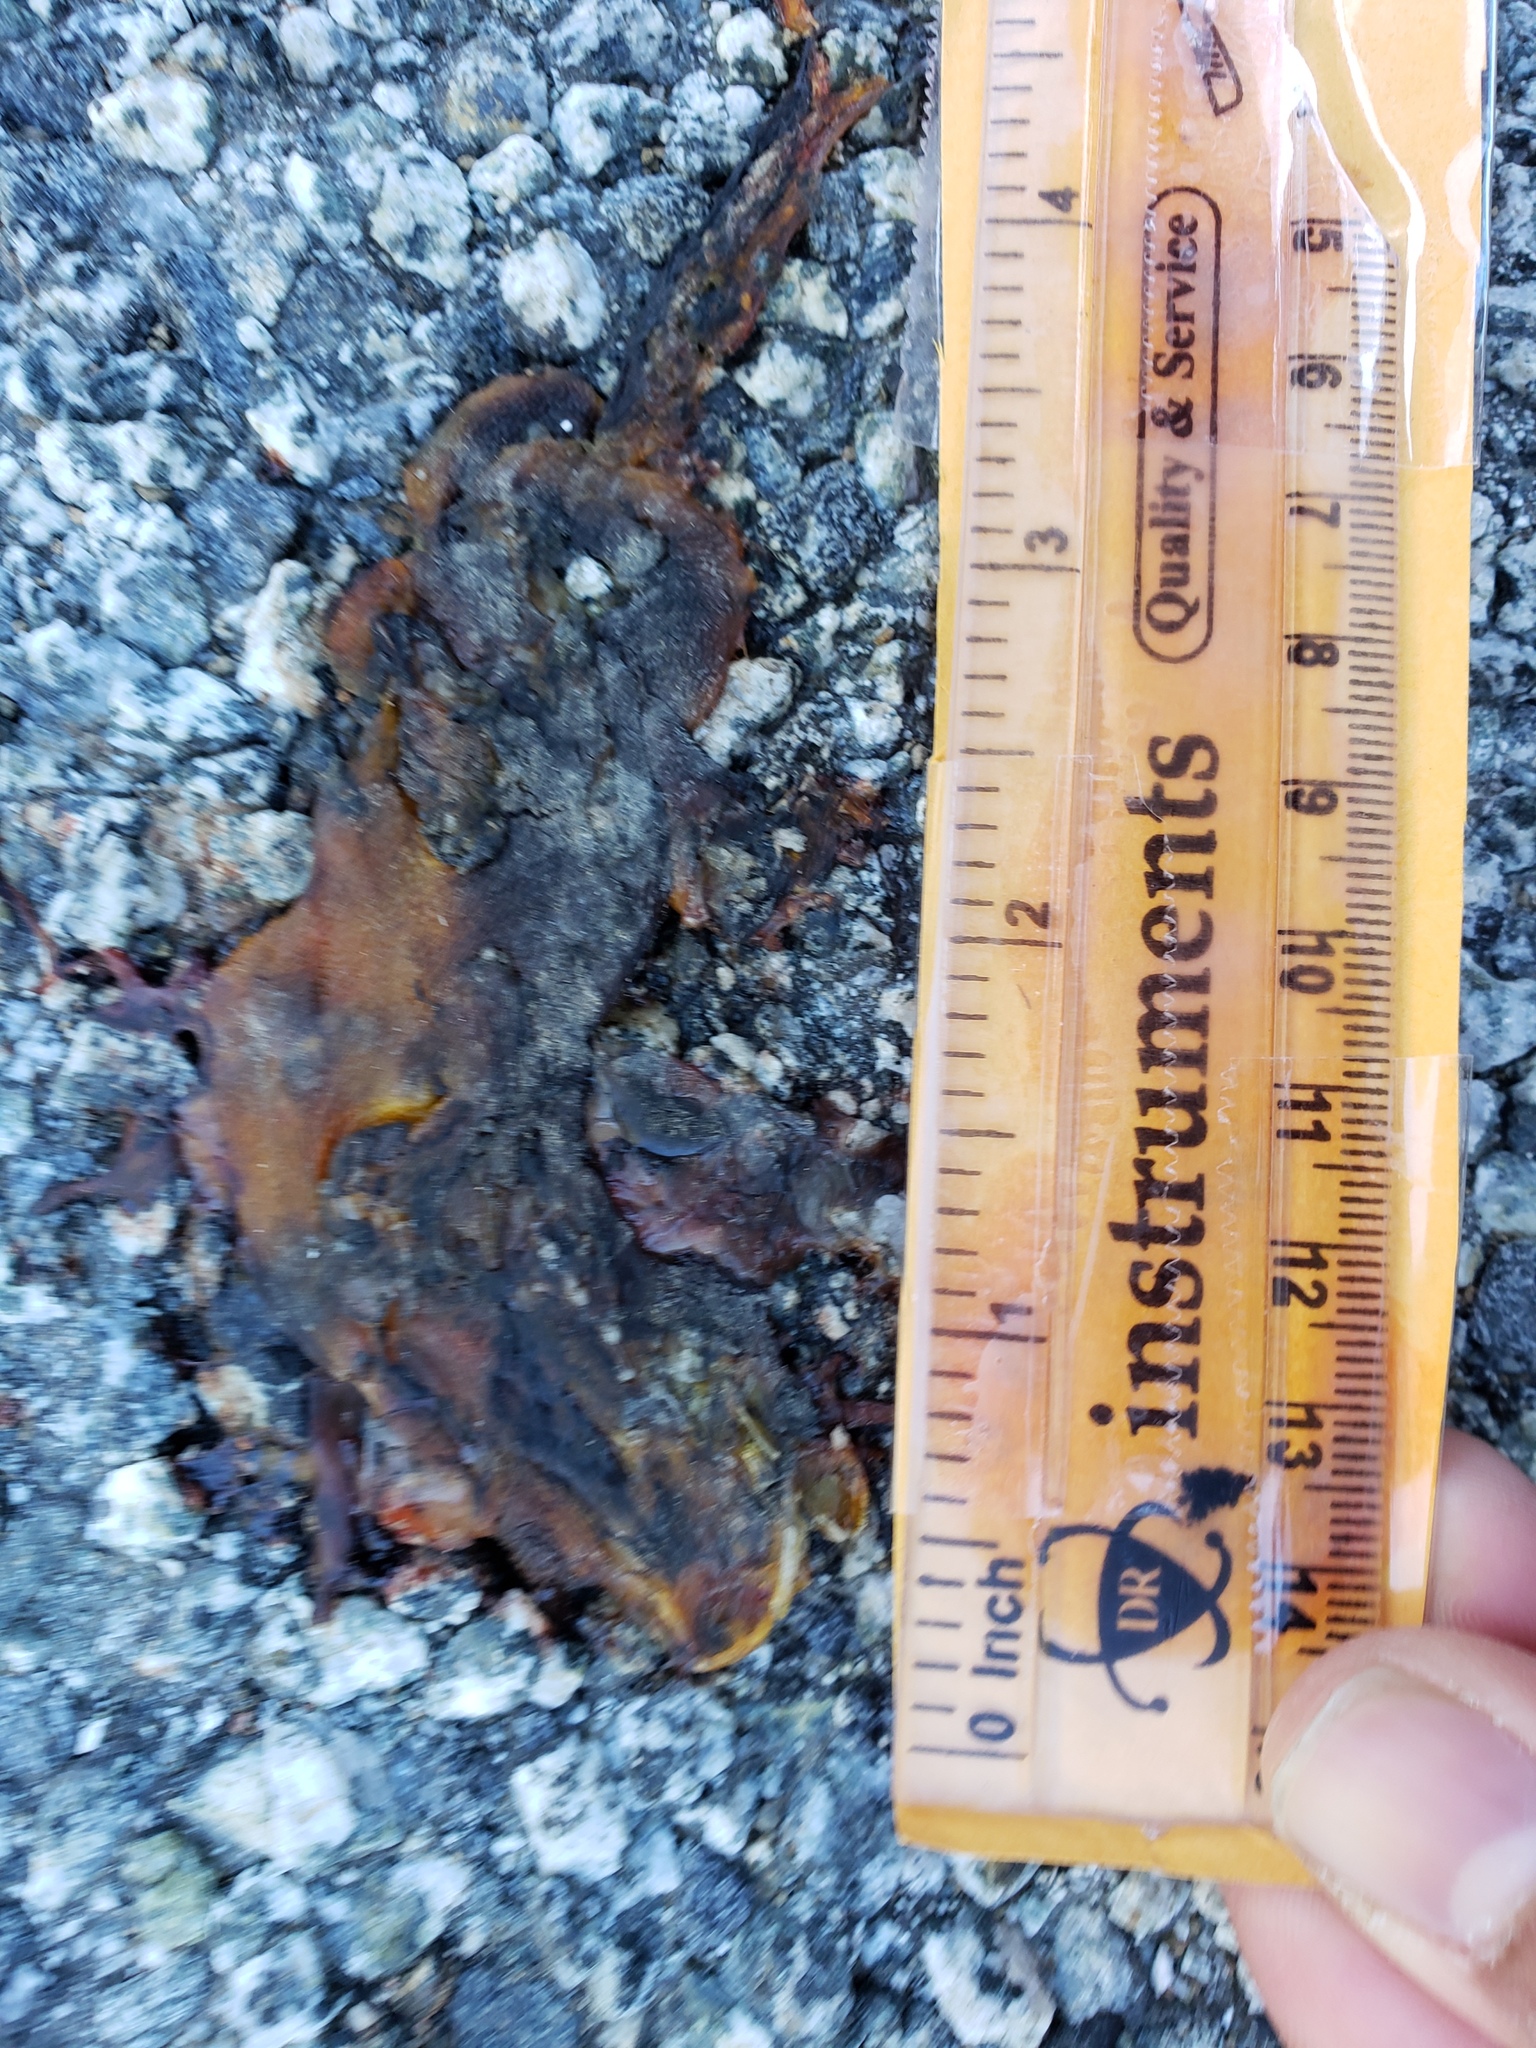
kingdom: Animalia
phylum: Chordata
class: Amphibia
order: Caudata
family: Salamandridae
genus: Taricha
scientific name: Taricha
